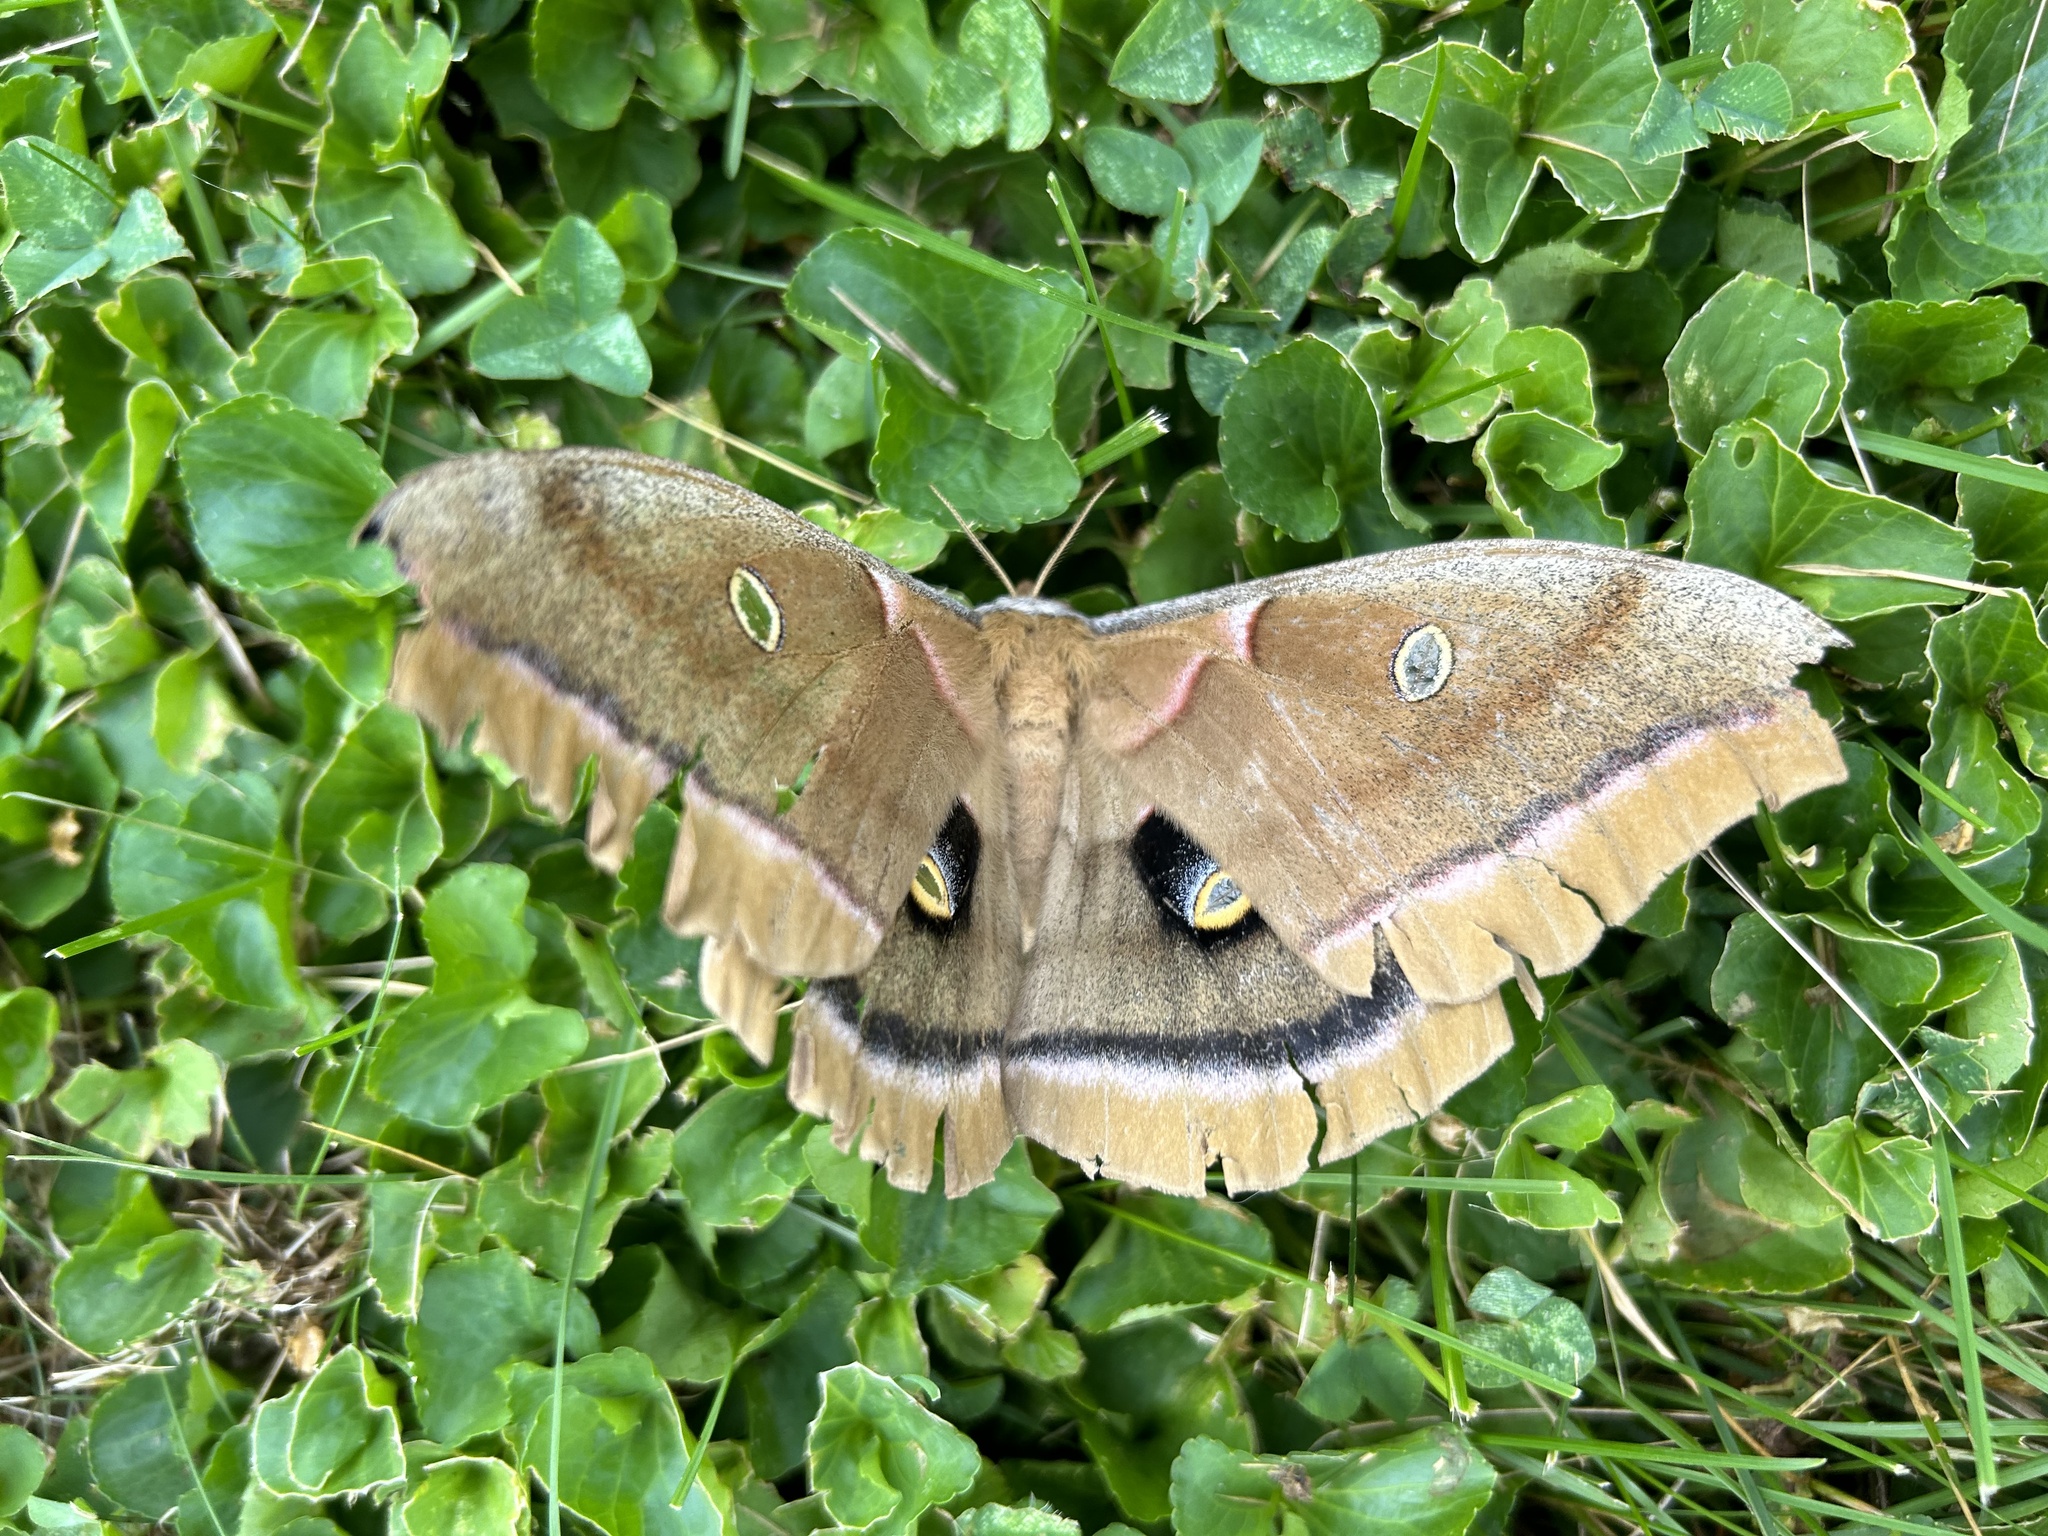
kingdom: Animalia
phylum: Arthropoda
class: Insecta
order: Lepidoptera
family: Saturniidae
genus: Antheraea
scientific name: Antheraea polyphemus
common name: Polyphemus moth
